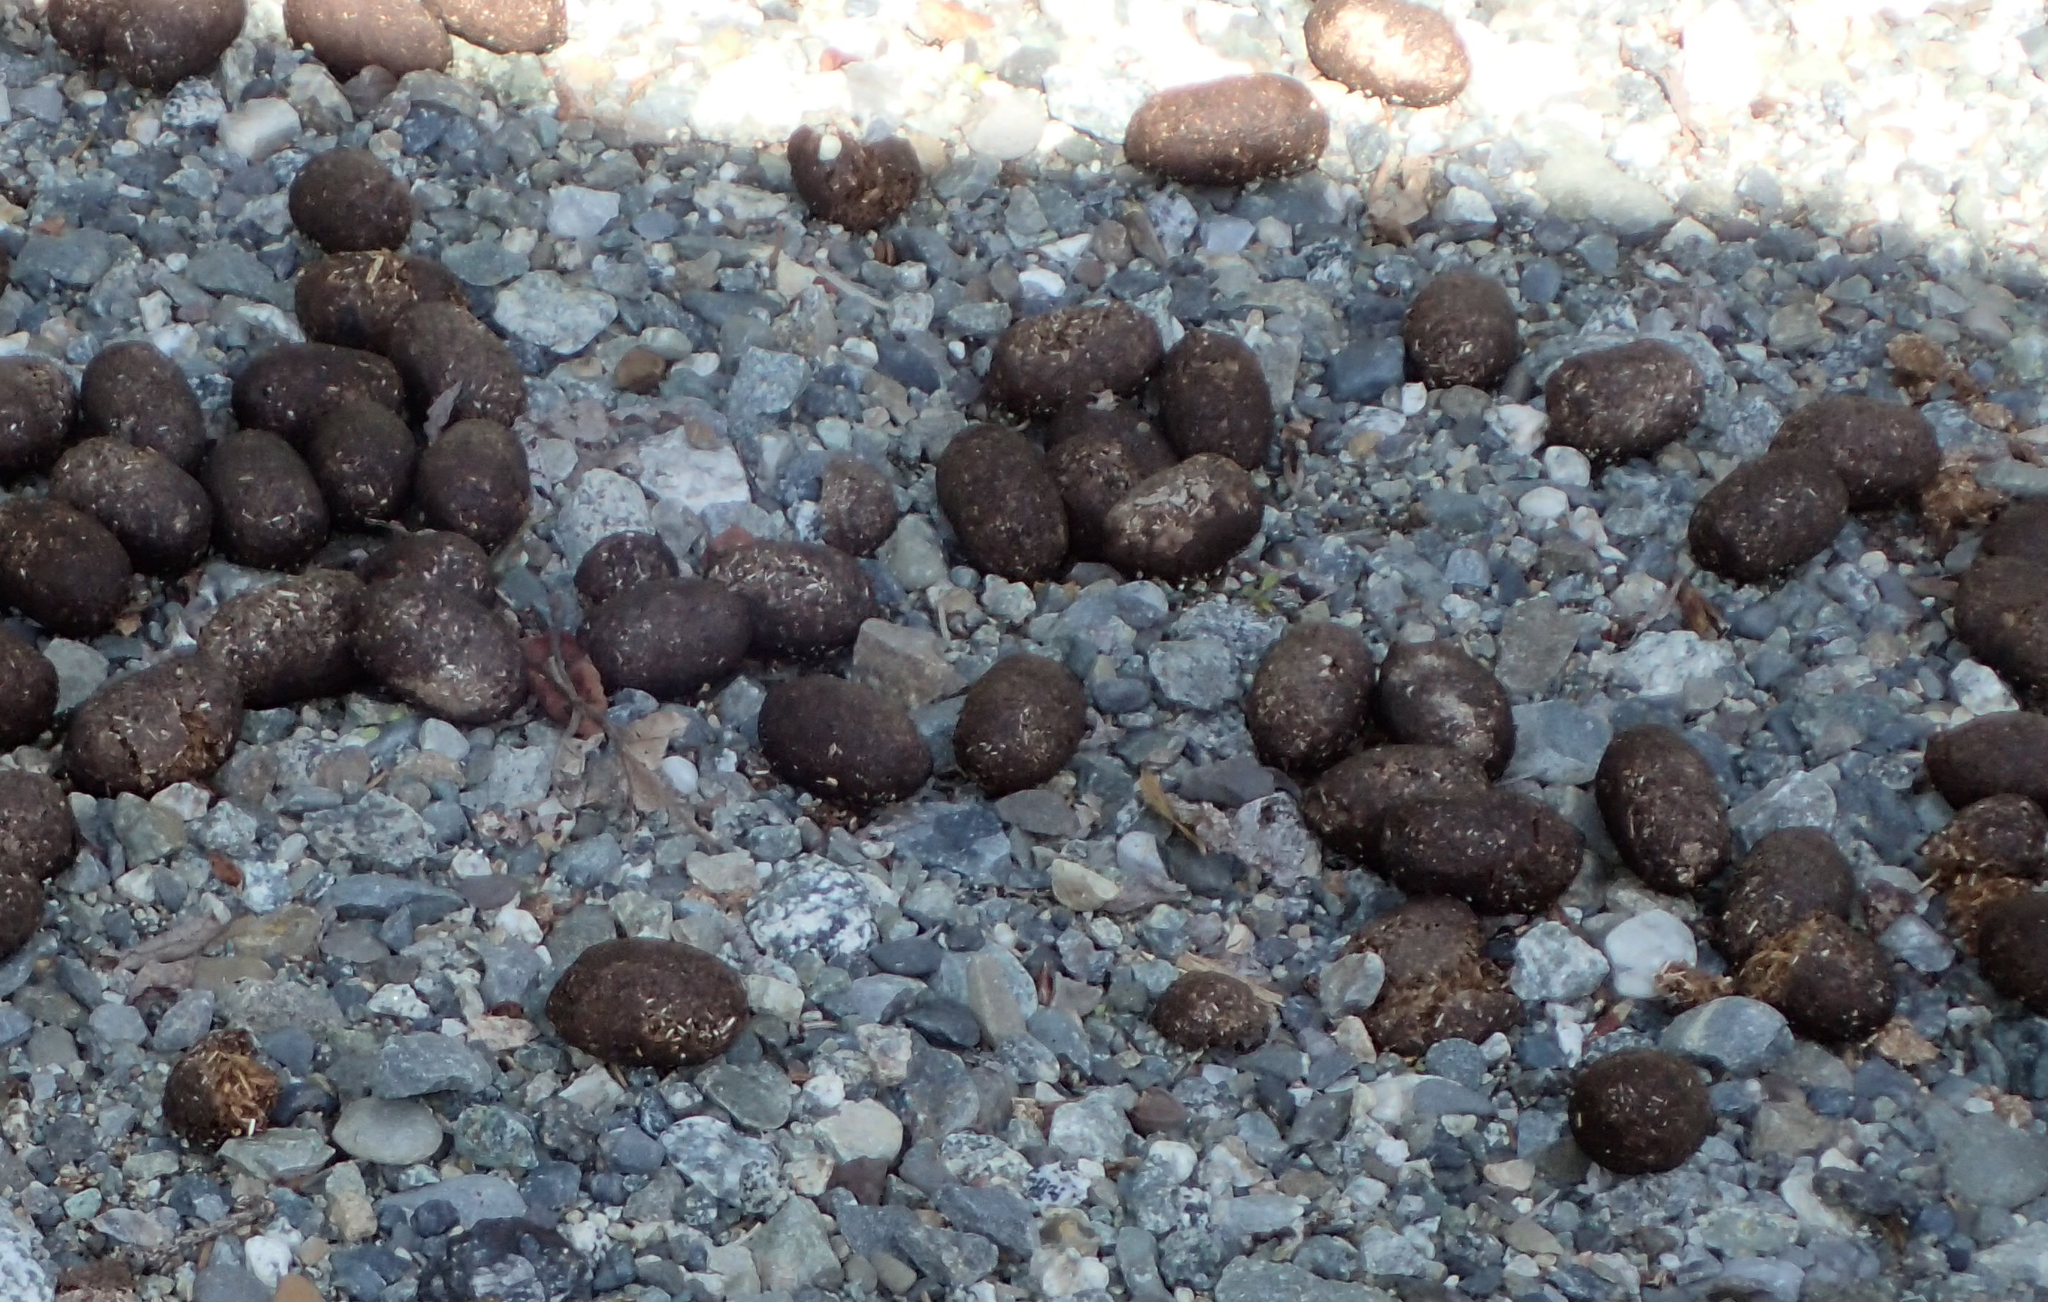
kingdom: Animalia
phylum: Chordata
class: Mammalia
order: Artiodactyla
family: Cervidae
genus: Alces
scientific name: Alces alces
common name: Moose
